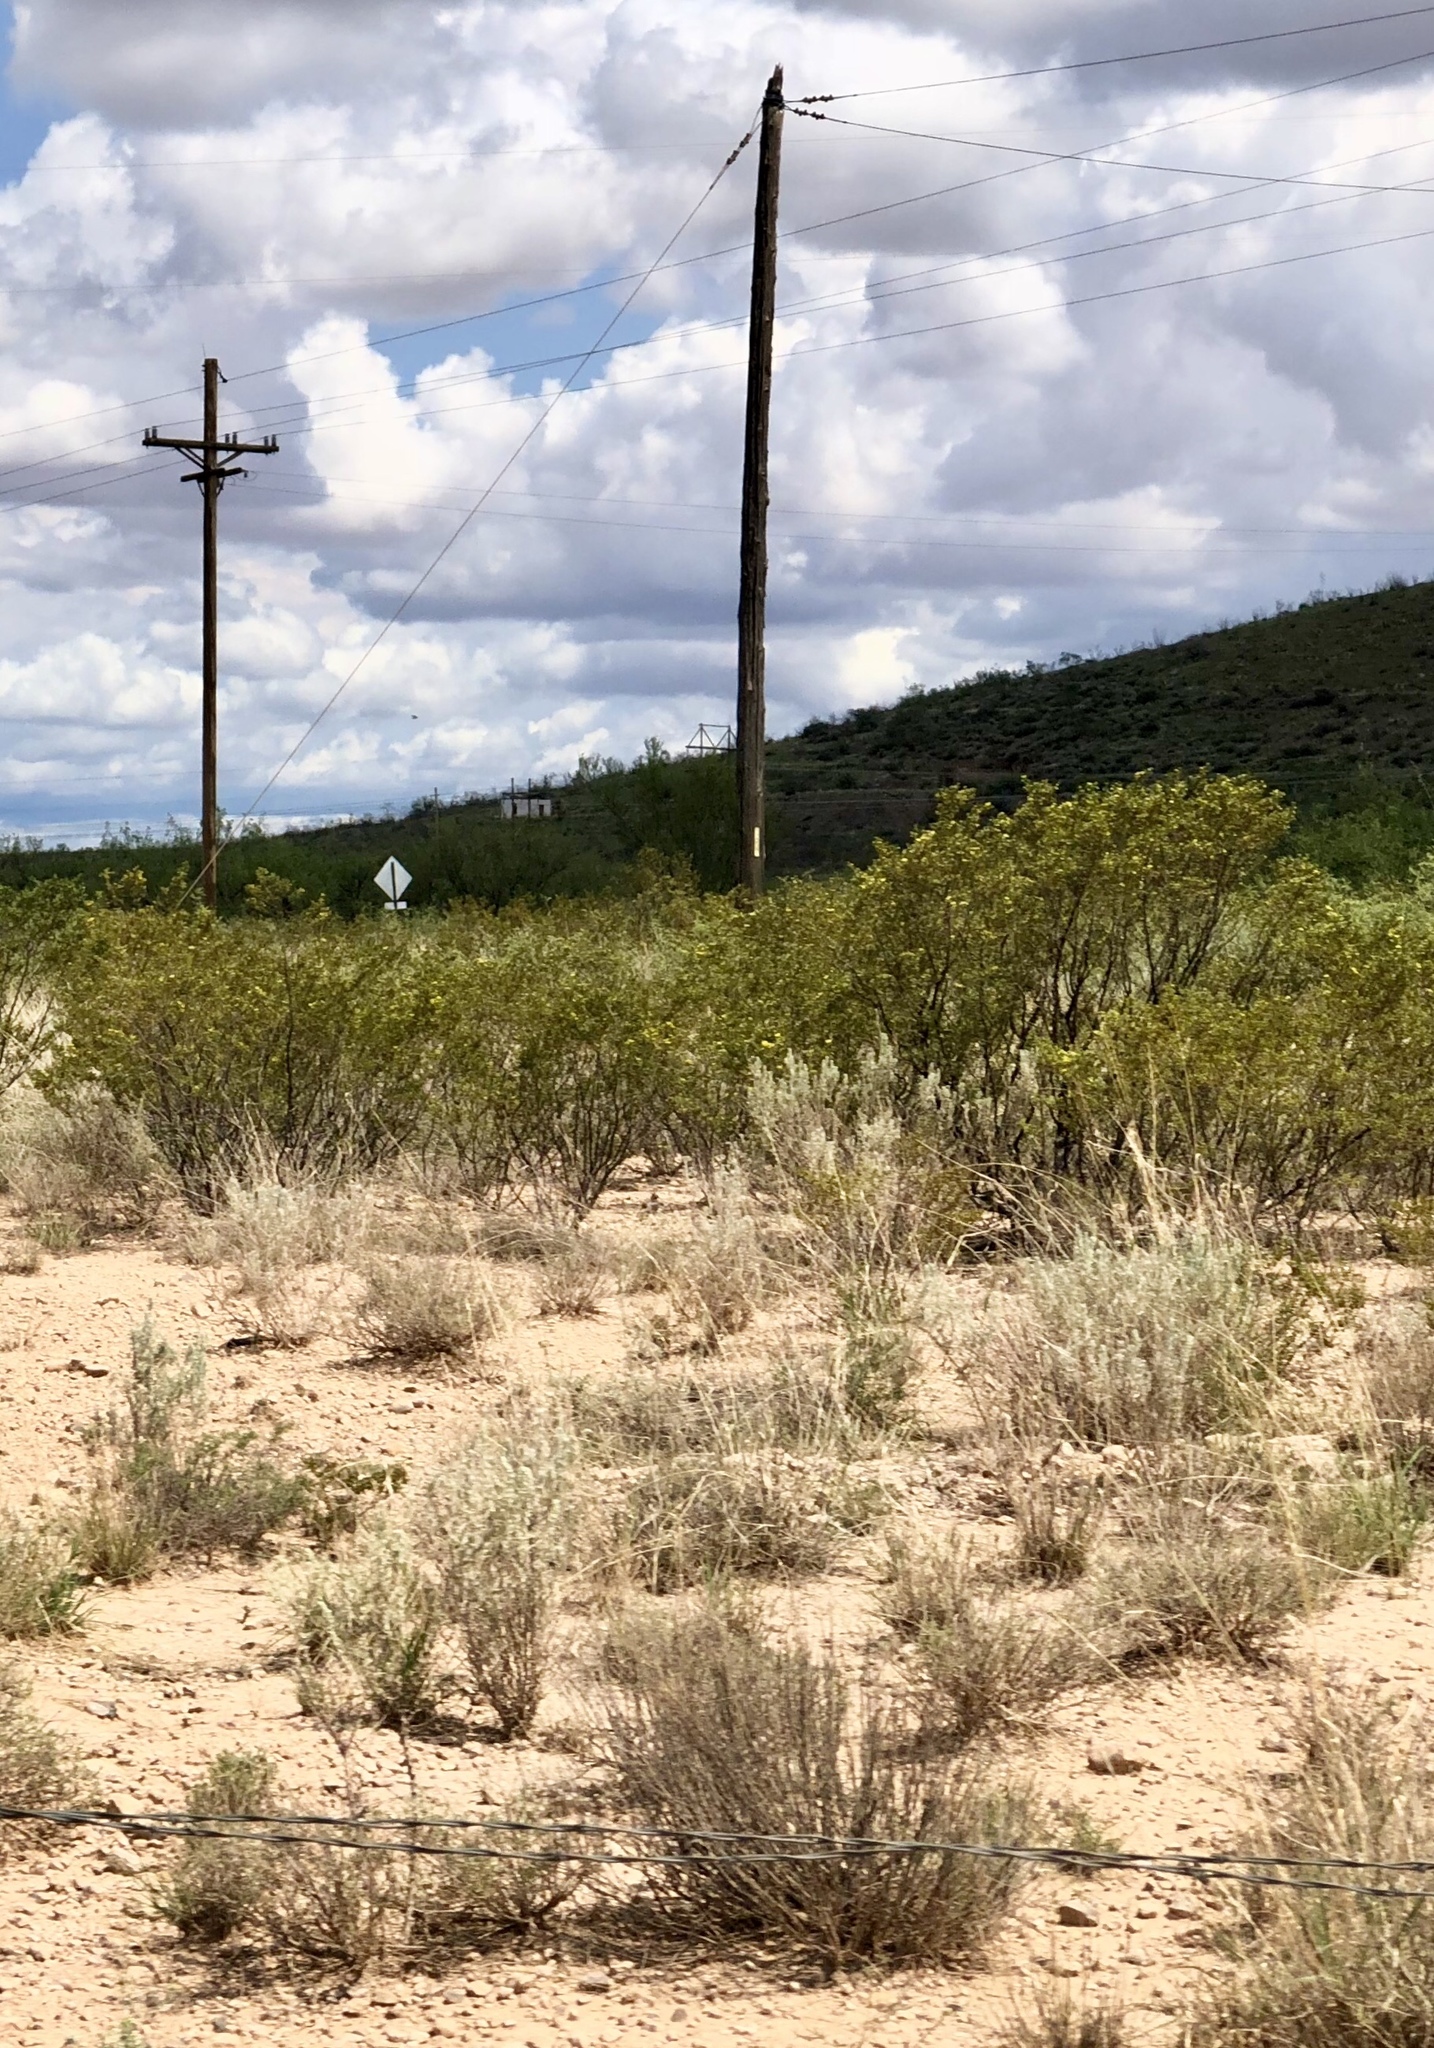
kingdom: Plantae
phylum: Tracheophyta
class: Magnoliopsida
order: Zygophyllales
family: Zygophyllaceae
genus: Larrea
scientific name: Larrea tridentata
